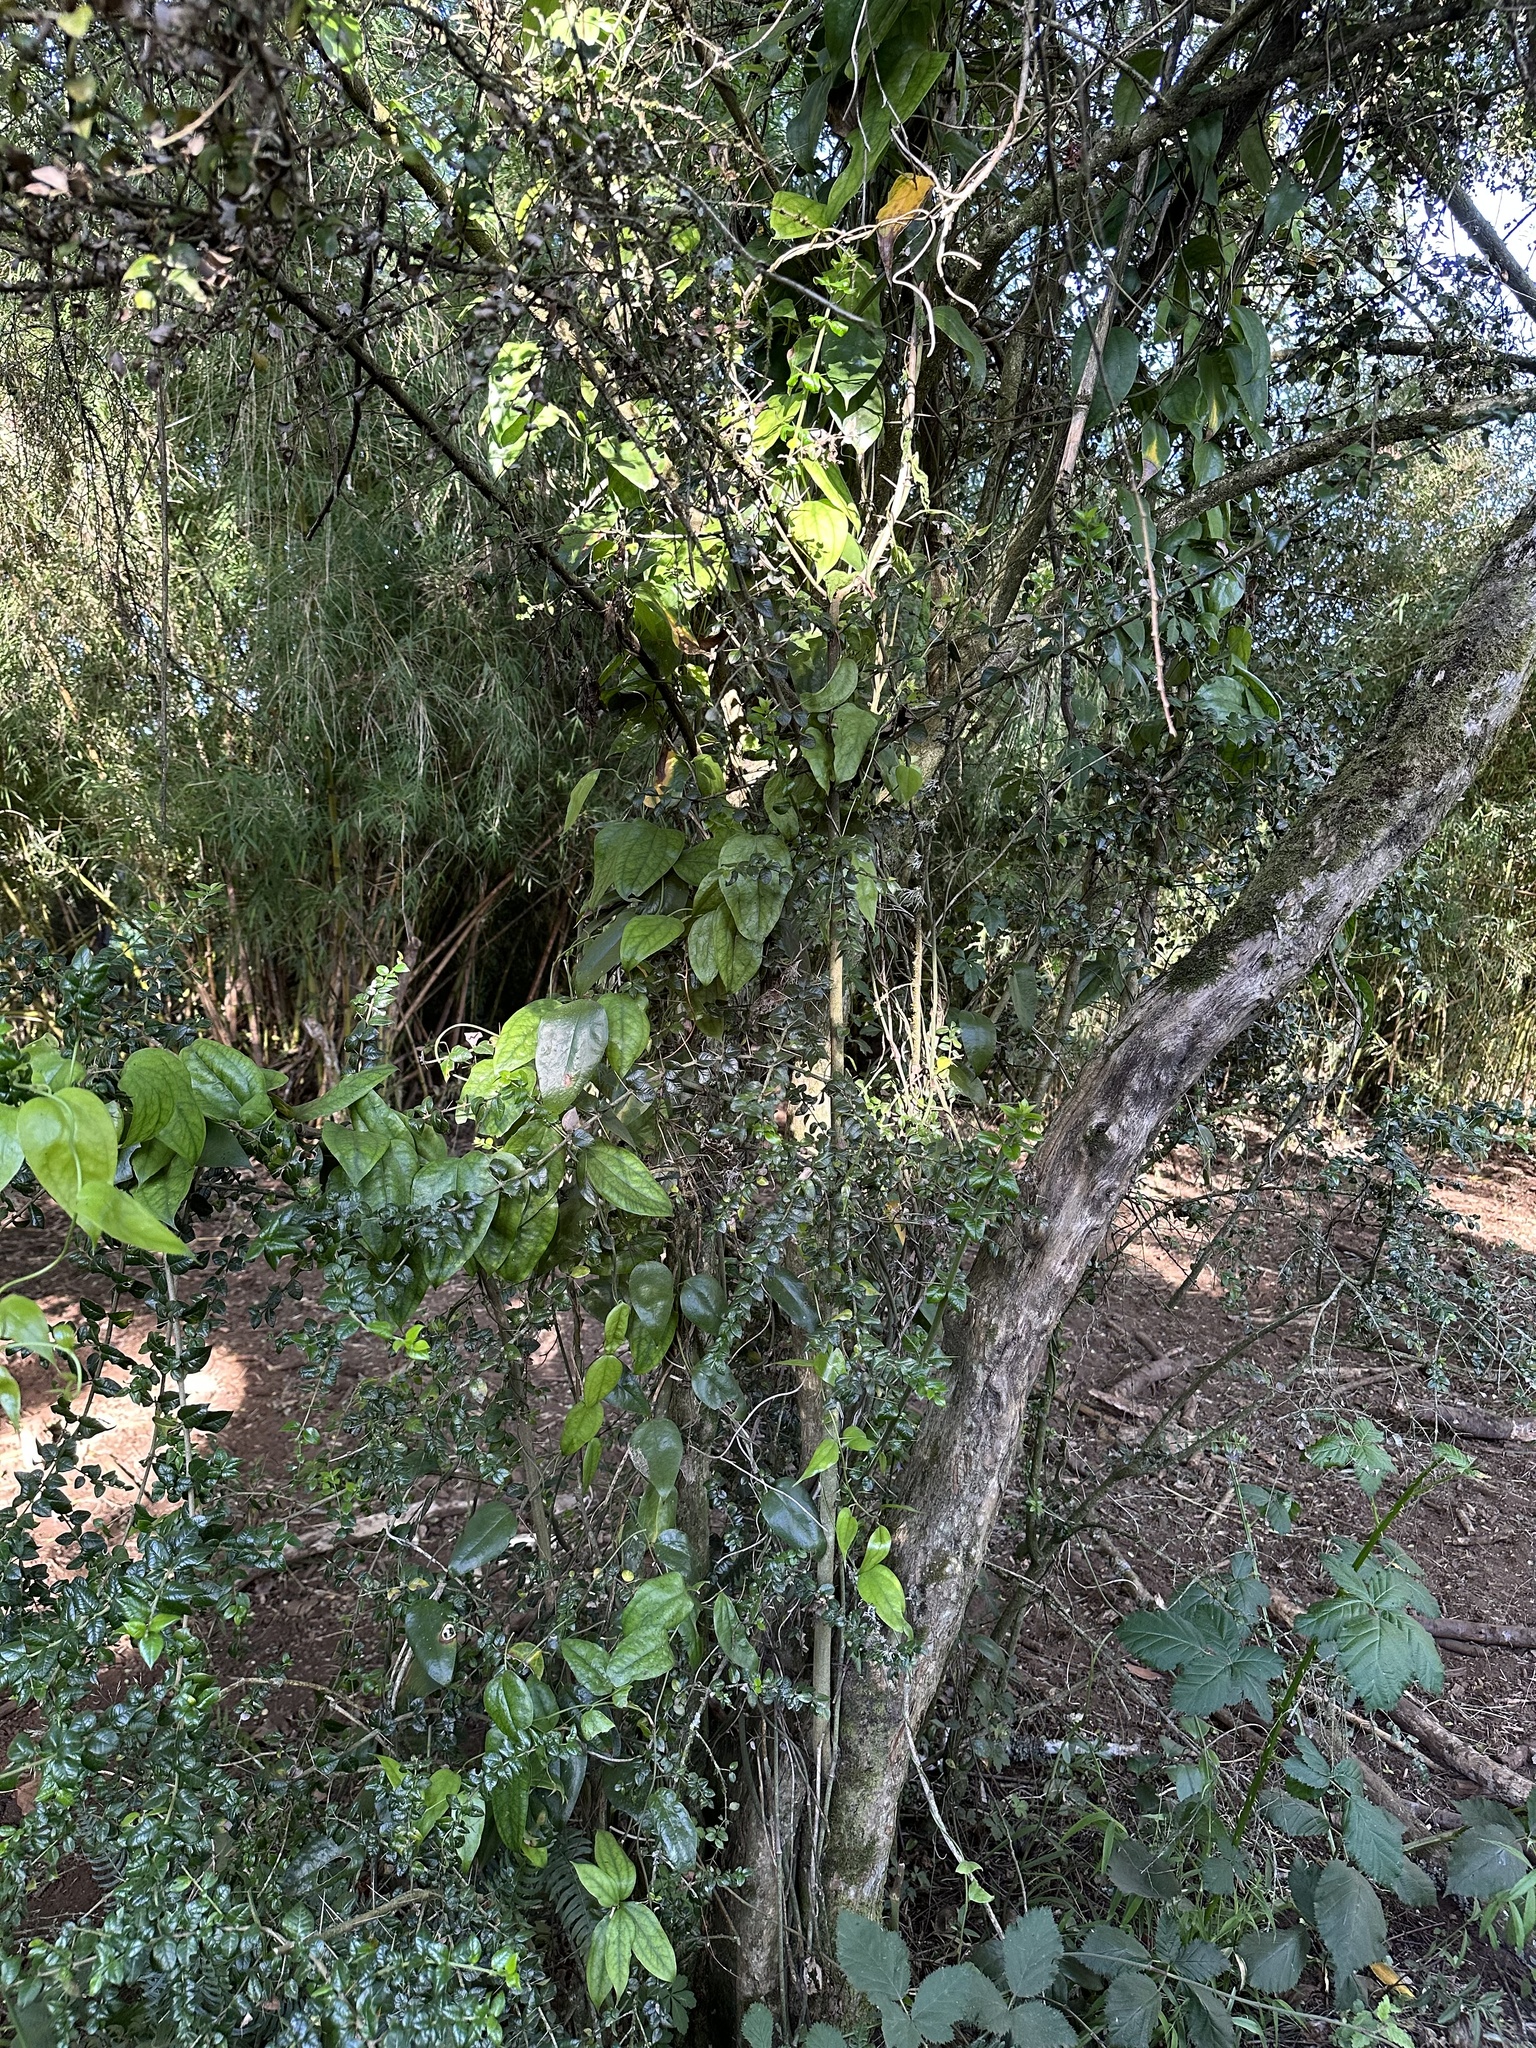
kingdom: Plantae
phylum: Tracheophyta
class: Liliopsida
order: Liliales
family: Philesiaceae
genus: Lapageria
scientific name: Lapageria rosea
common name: Chilean-bellflower
